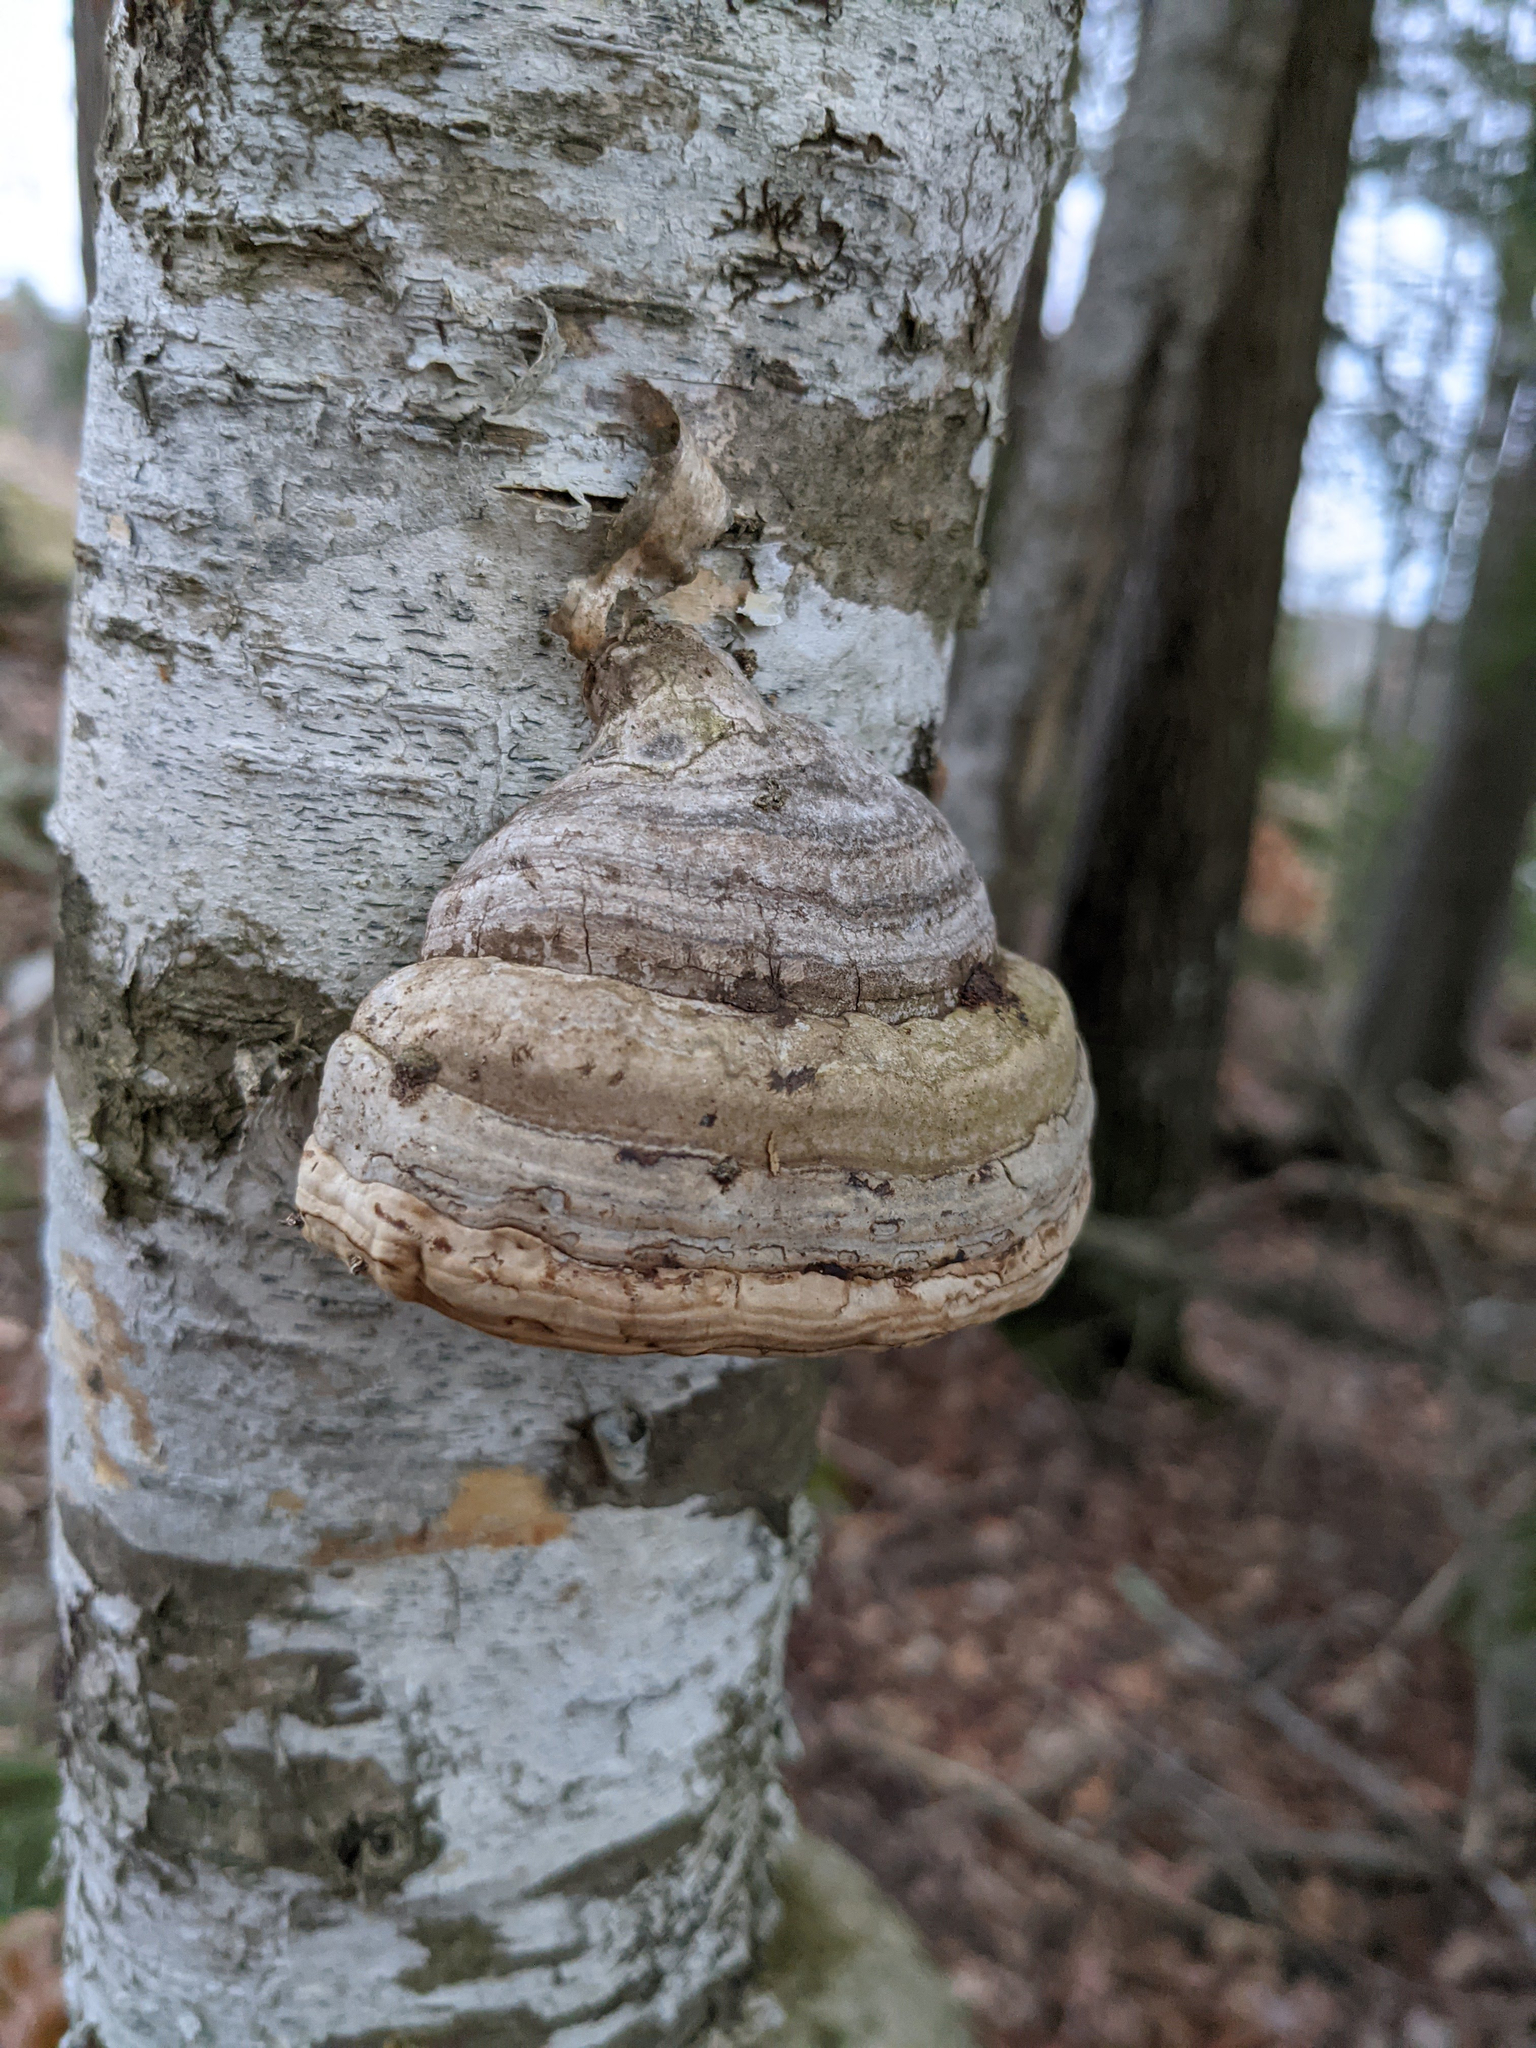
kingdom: Fungi
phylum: Basidiomycota
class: Agaricomycetes
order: Polyporales
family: Polyporaceae
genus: Fomes
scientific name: Fomes fomentarius
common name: Hoof fungus
